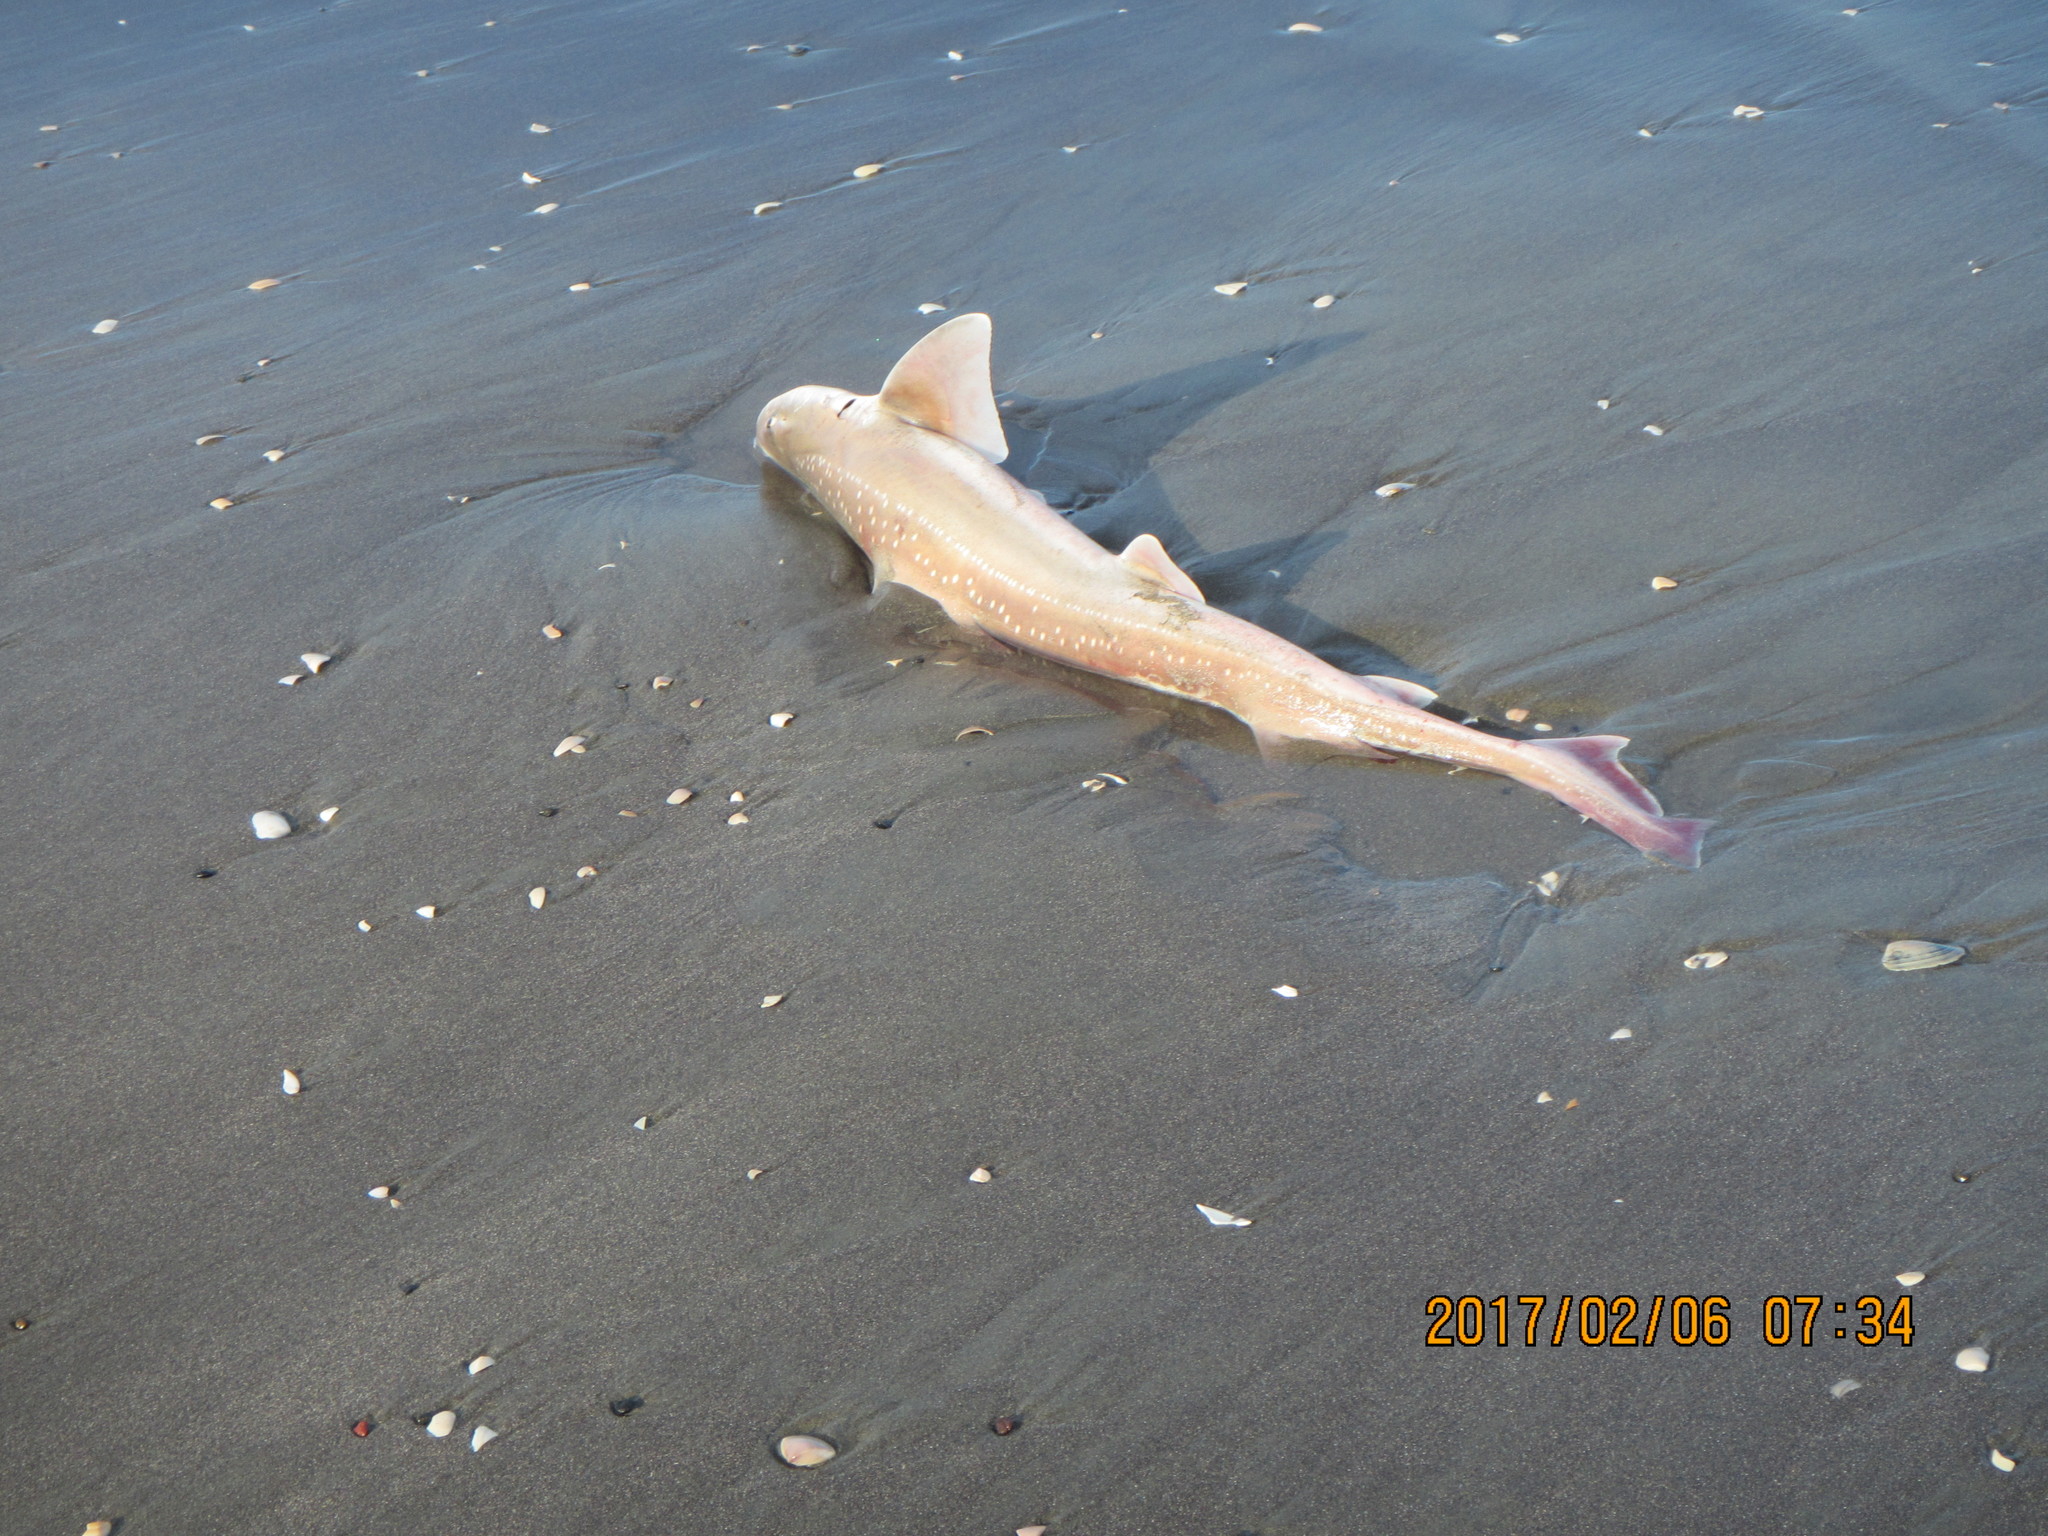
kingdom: Animalia
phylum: Chordata
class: Elasmobranchii
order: Carcharhiniformes
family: Triakidae
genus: Mustelus
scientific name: Mustelus lenticulatus
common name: Gummy shark
